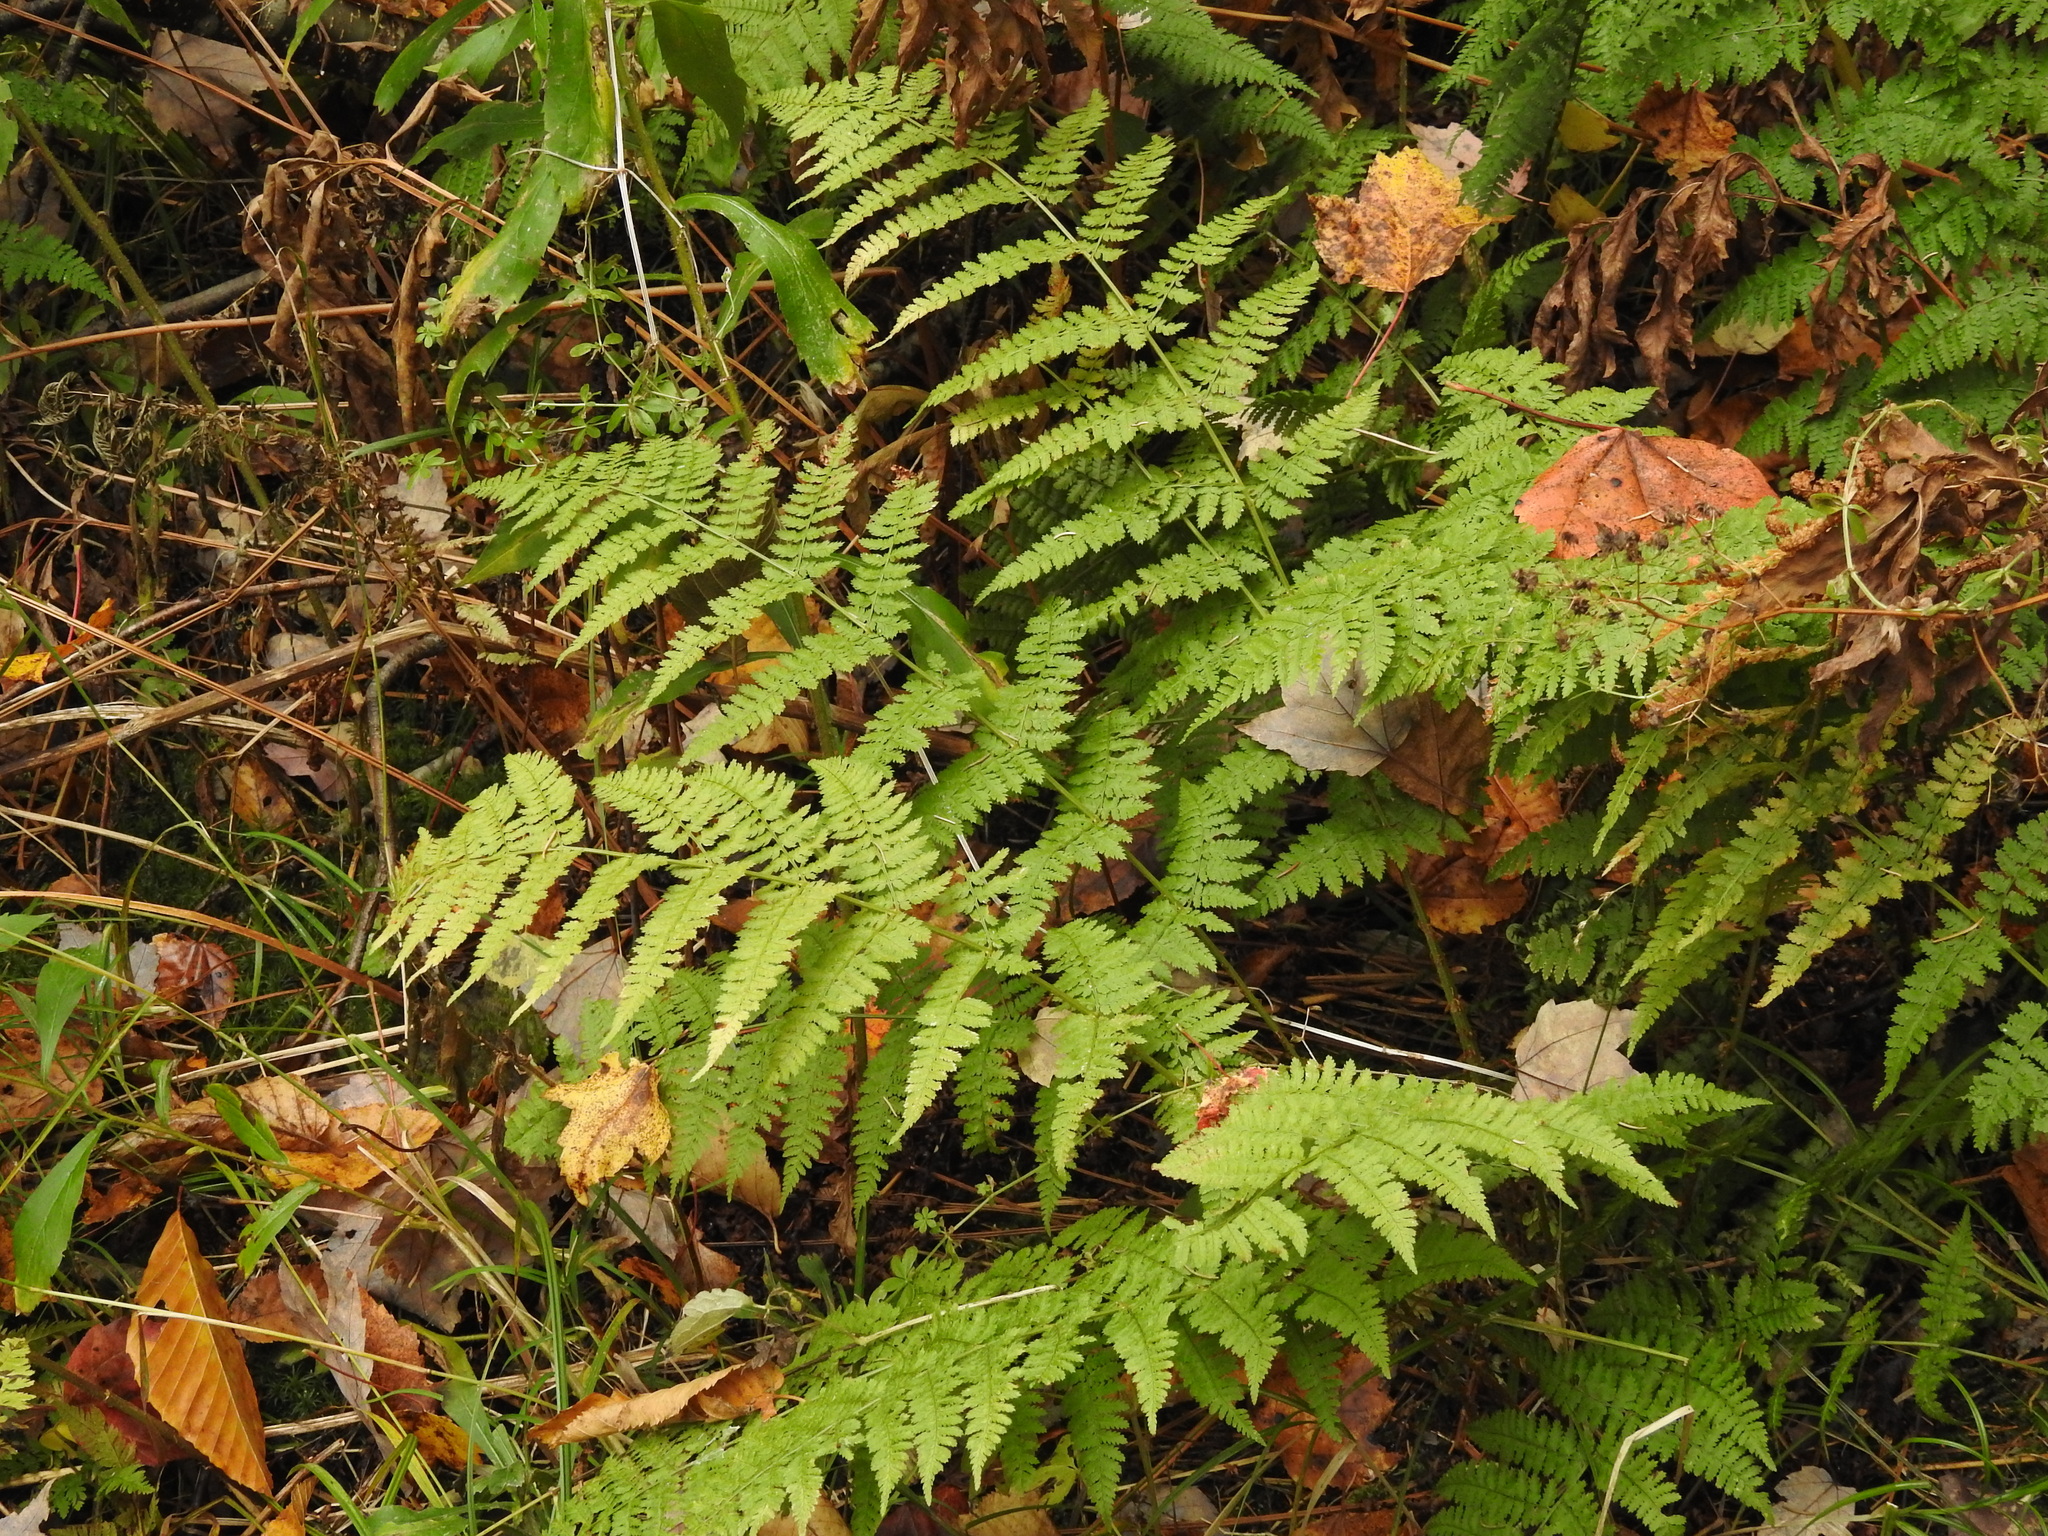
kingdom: Plantae
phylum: Tracheophyta
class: Polypodiopsida
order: Polypodiales
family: Dryopteridaceae
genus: Dryopteris
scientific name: Dryopteris intermedia
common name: Evergreen wood fern
